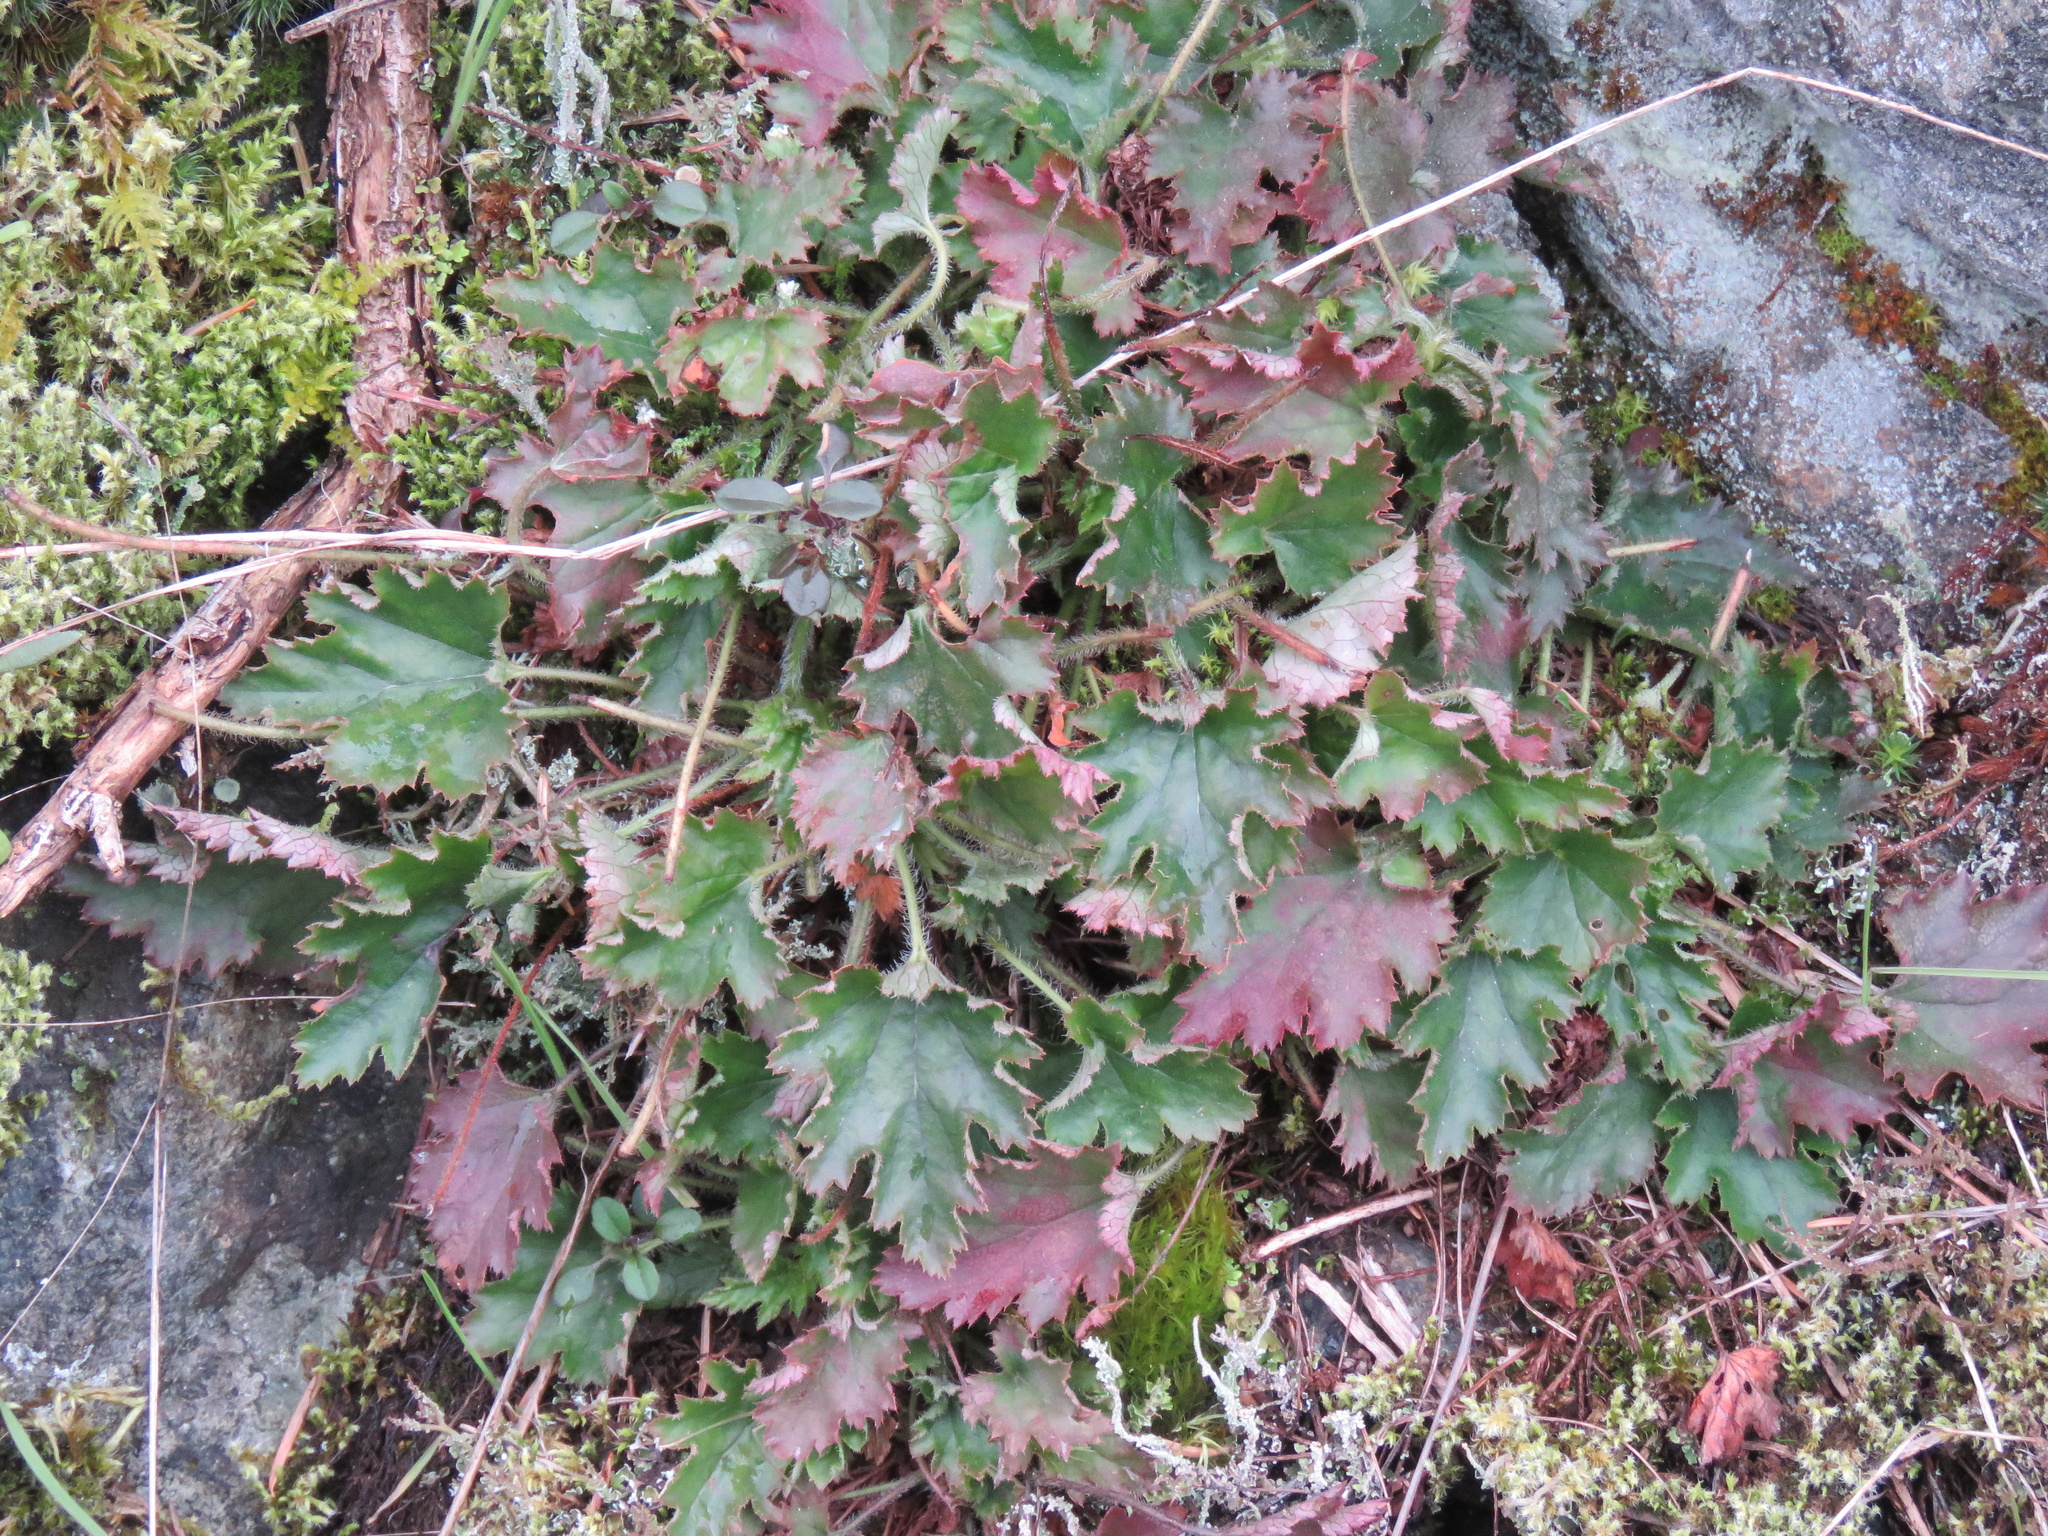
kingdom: Plantae
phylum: Tracheophyta
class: Magnoliopsida
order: Saxifragales
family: Saxifragaceae
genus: Heuchera
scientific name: Heuchera micrantha
